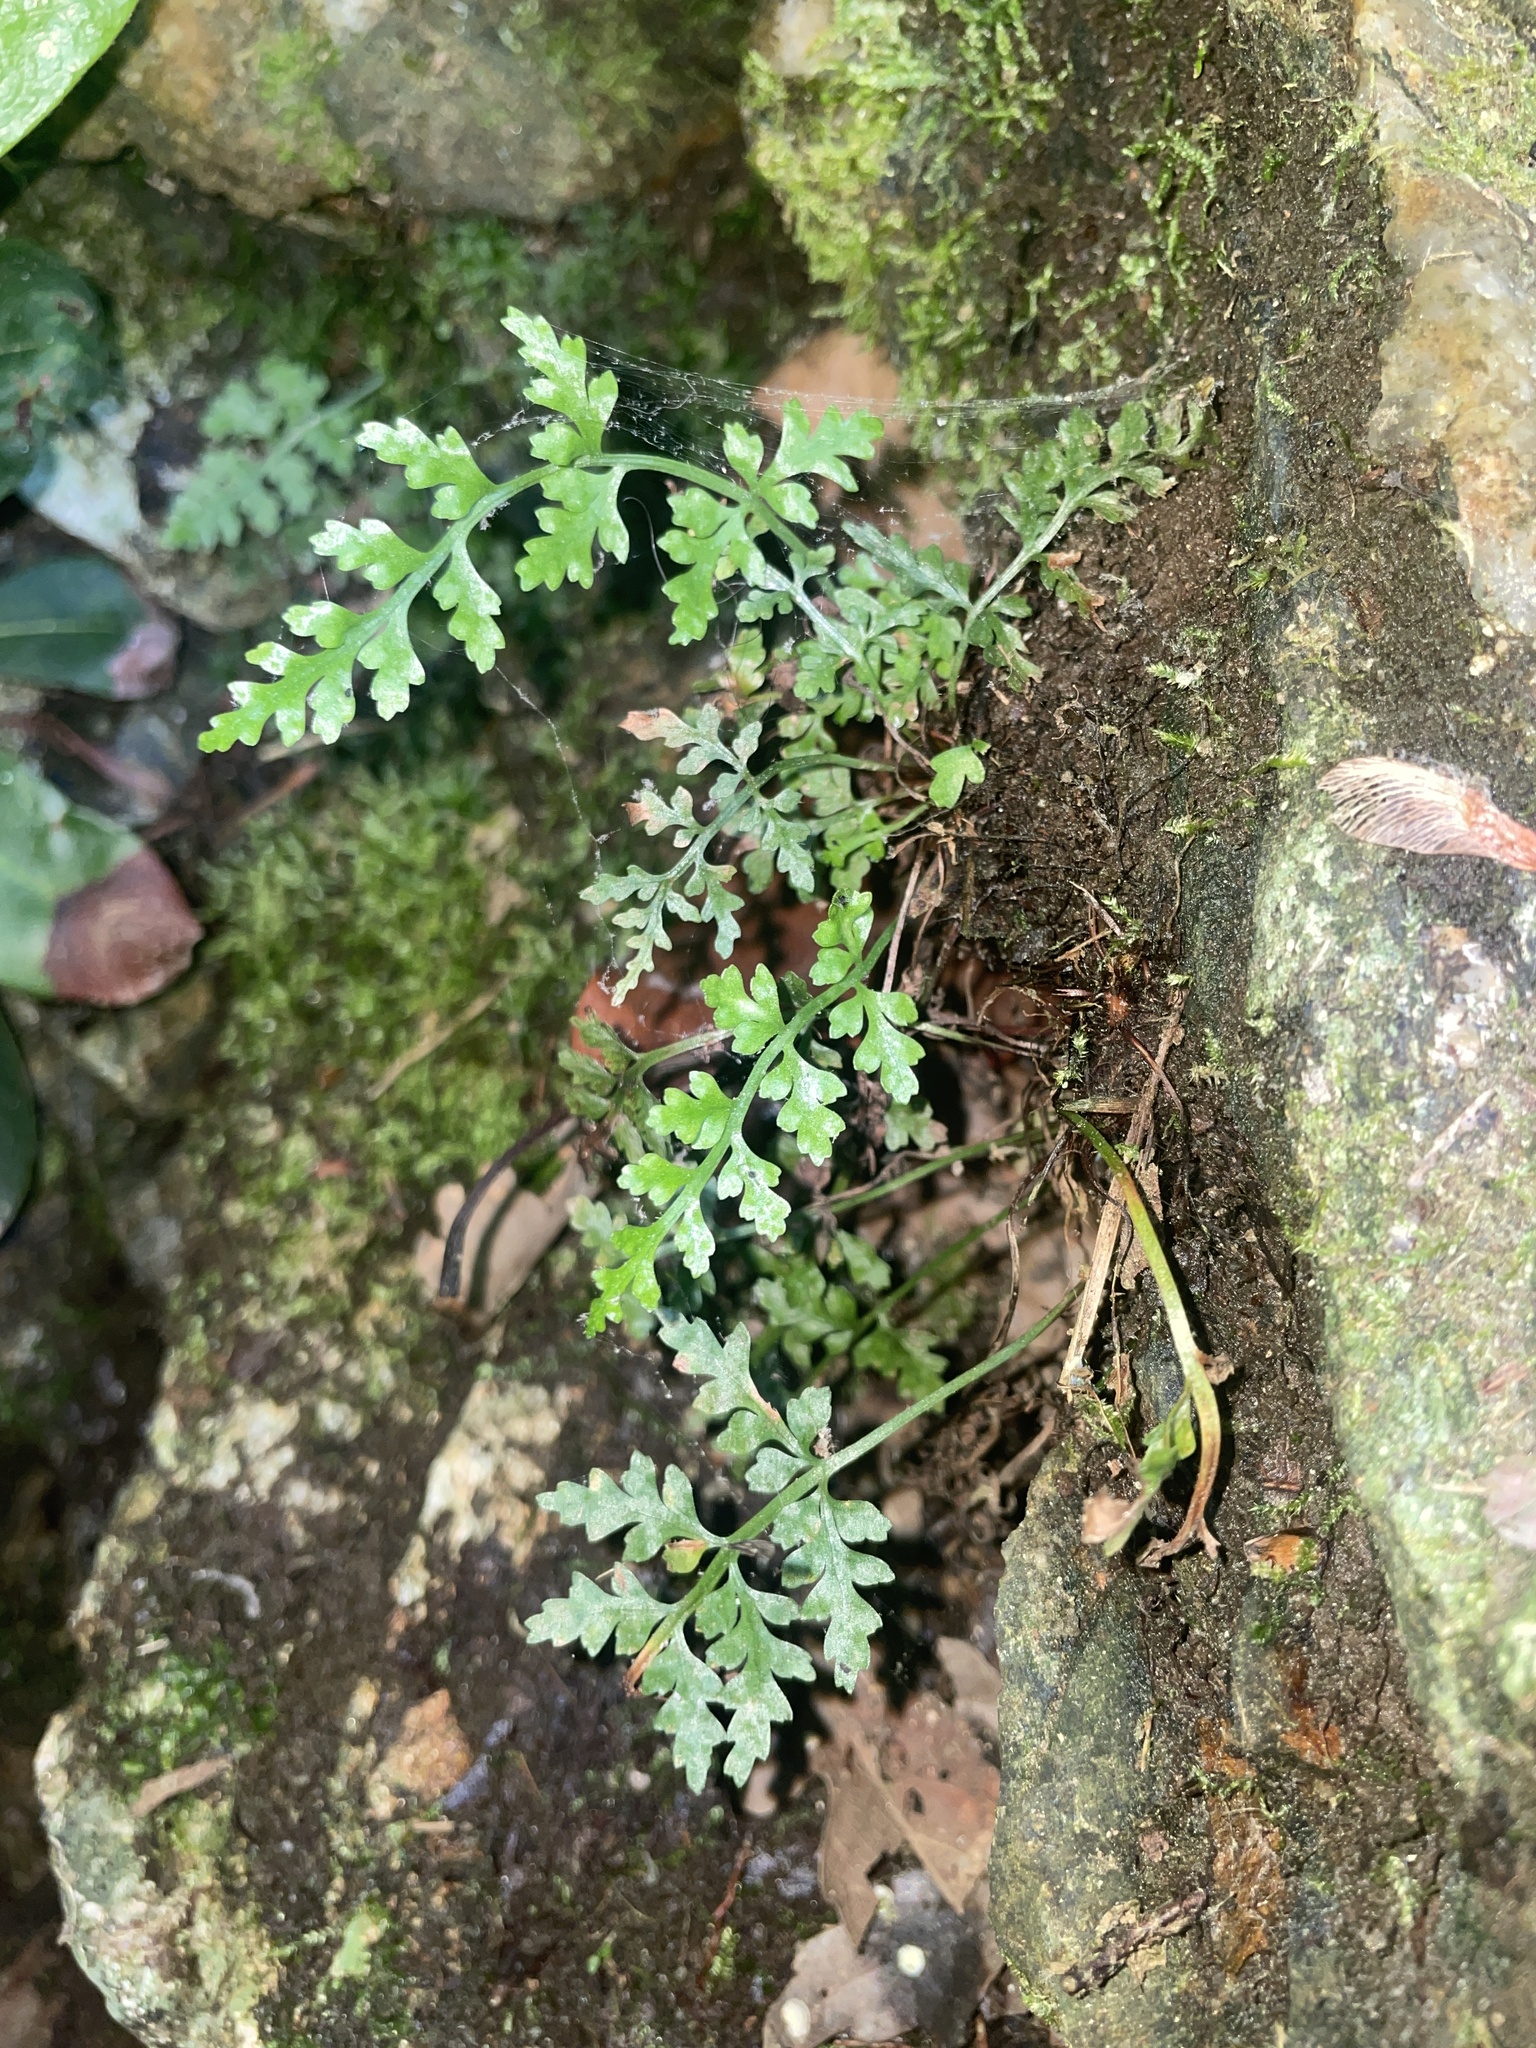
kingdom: Plantae
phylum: Tracheophyta
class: Polypodiopsida
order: Polypodiales
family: Aspleniaceae
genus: Asplenium
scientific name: Asplenium montanum
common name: Mountain spleenwort
